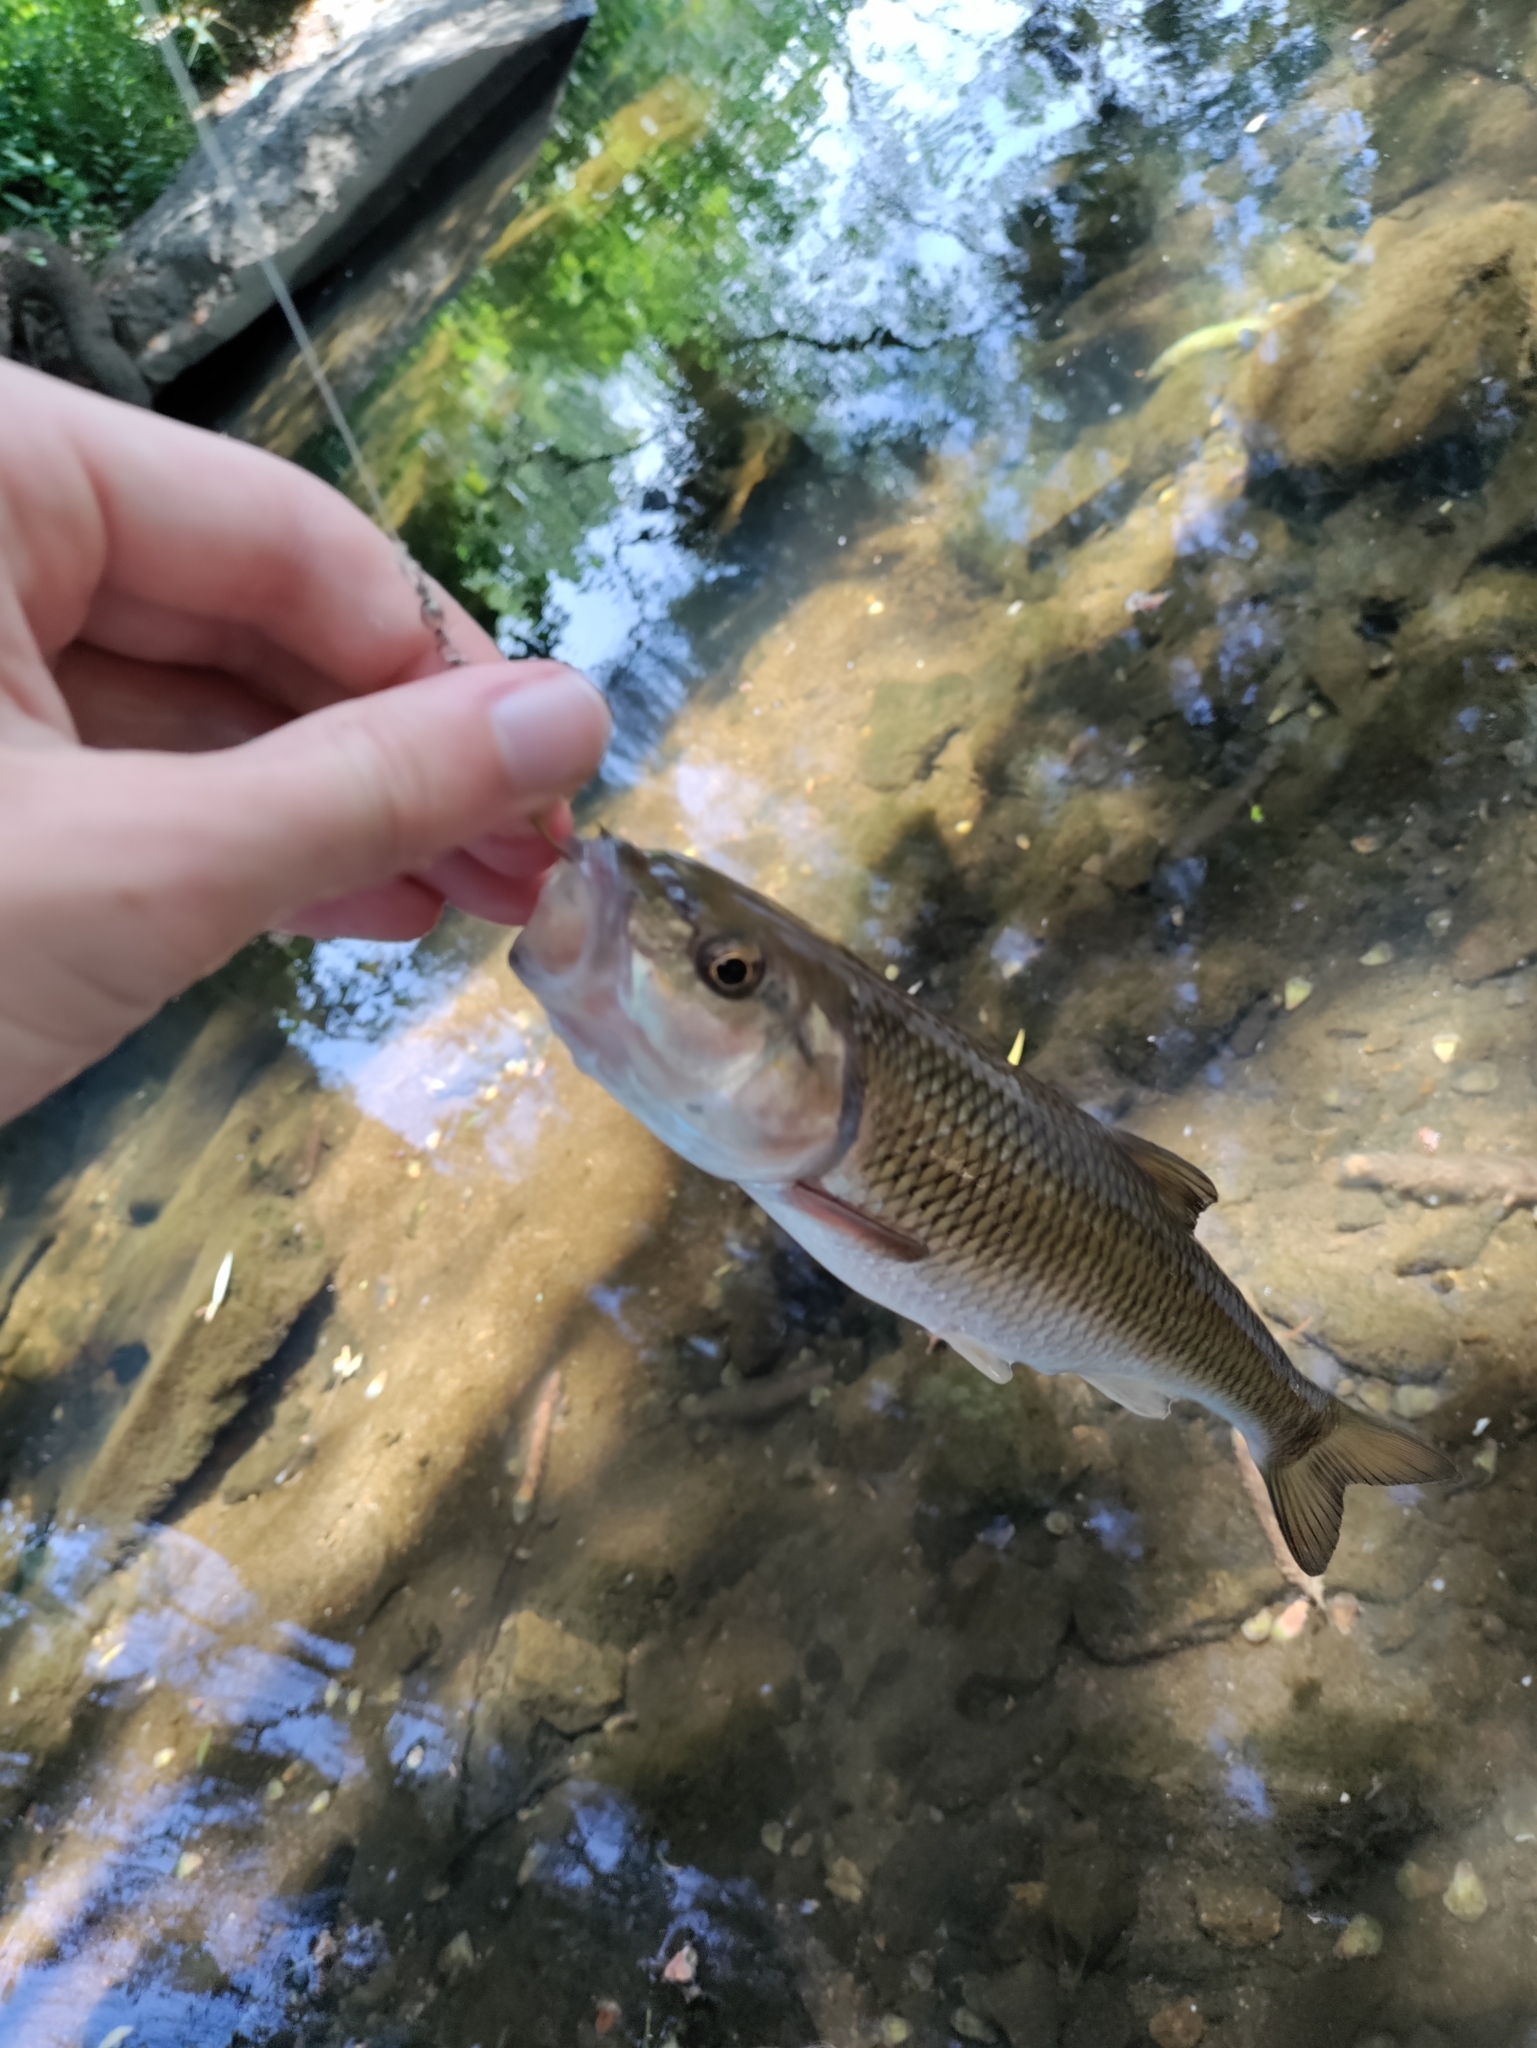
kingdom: Animalia
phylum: Chordata
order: Cypriniformes
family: Cyprinidae
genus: Semotilus
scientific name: Semotilus corporalis
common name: Fallfish
